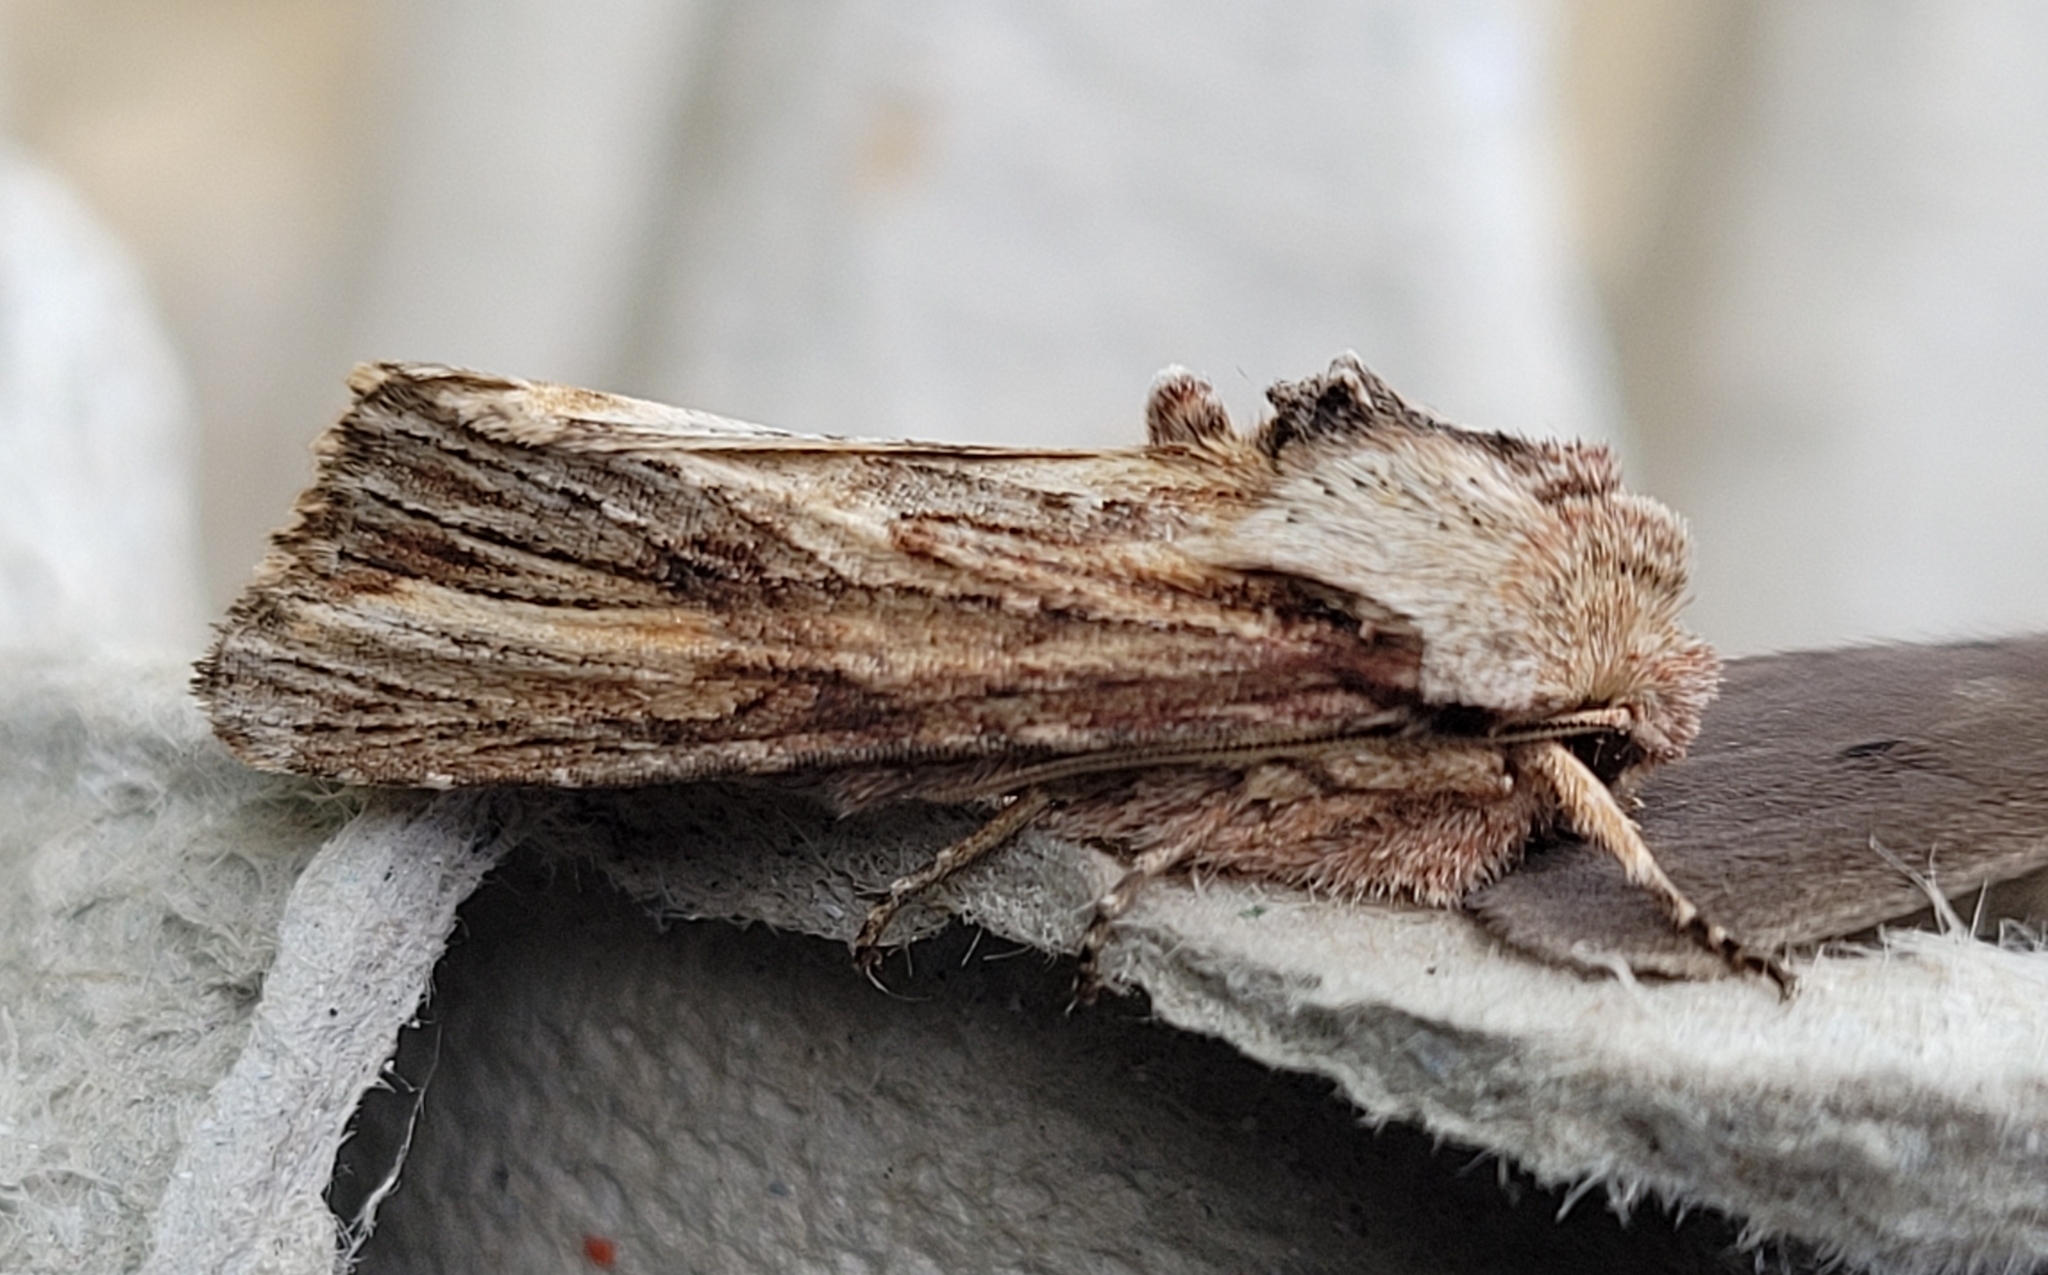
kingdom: Animalia
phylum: Arthropoda
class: Insecta
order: Lepidoptera
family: Noctuidae
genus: Egira
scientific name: Egira conspicillaris
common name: Silver cloud
